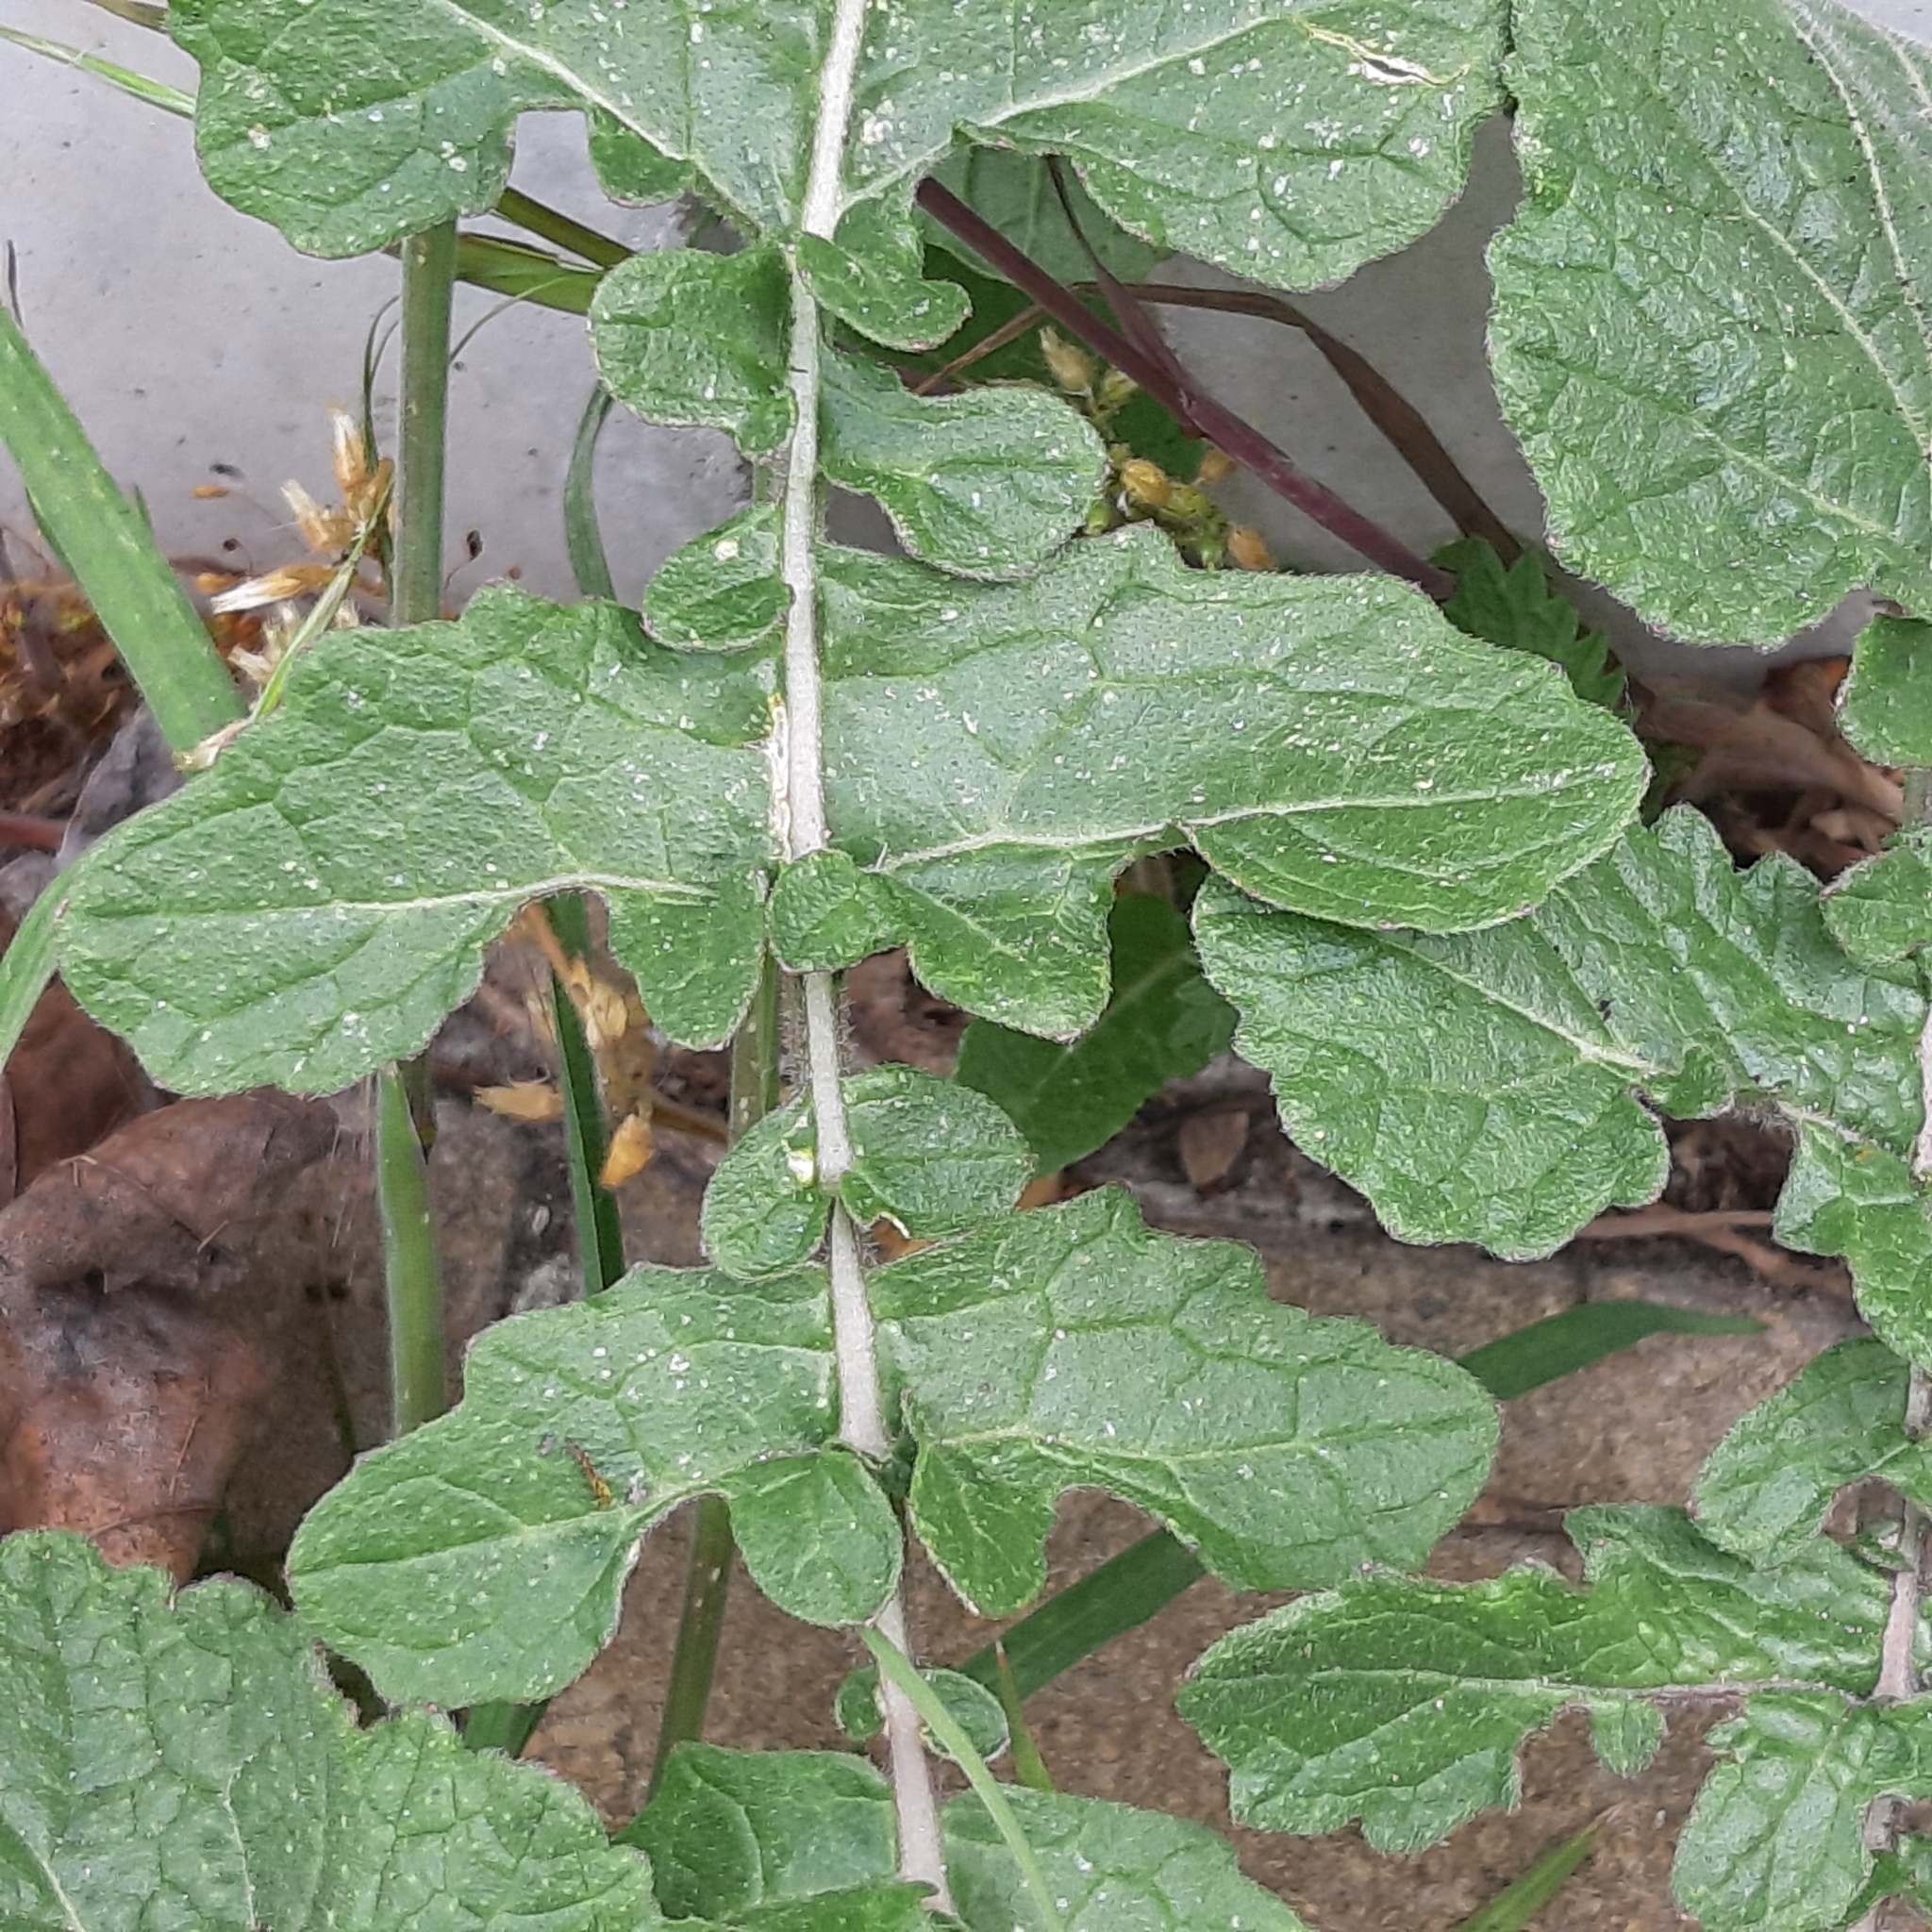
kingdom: Plantae
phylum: Tracheophyta
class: Magnoliopsida
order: Brassicales
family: Brassicaceae
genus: Raphanus
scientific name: Raphanus raphanistrum
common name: Wild radish
